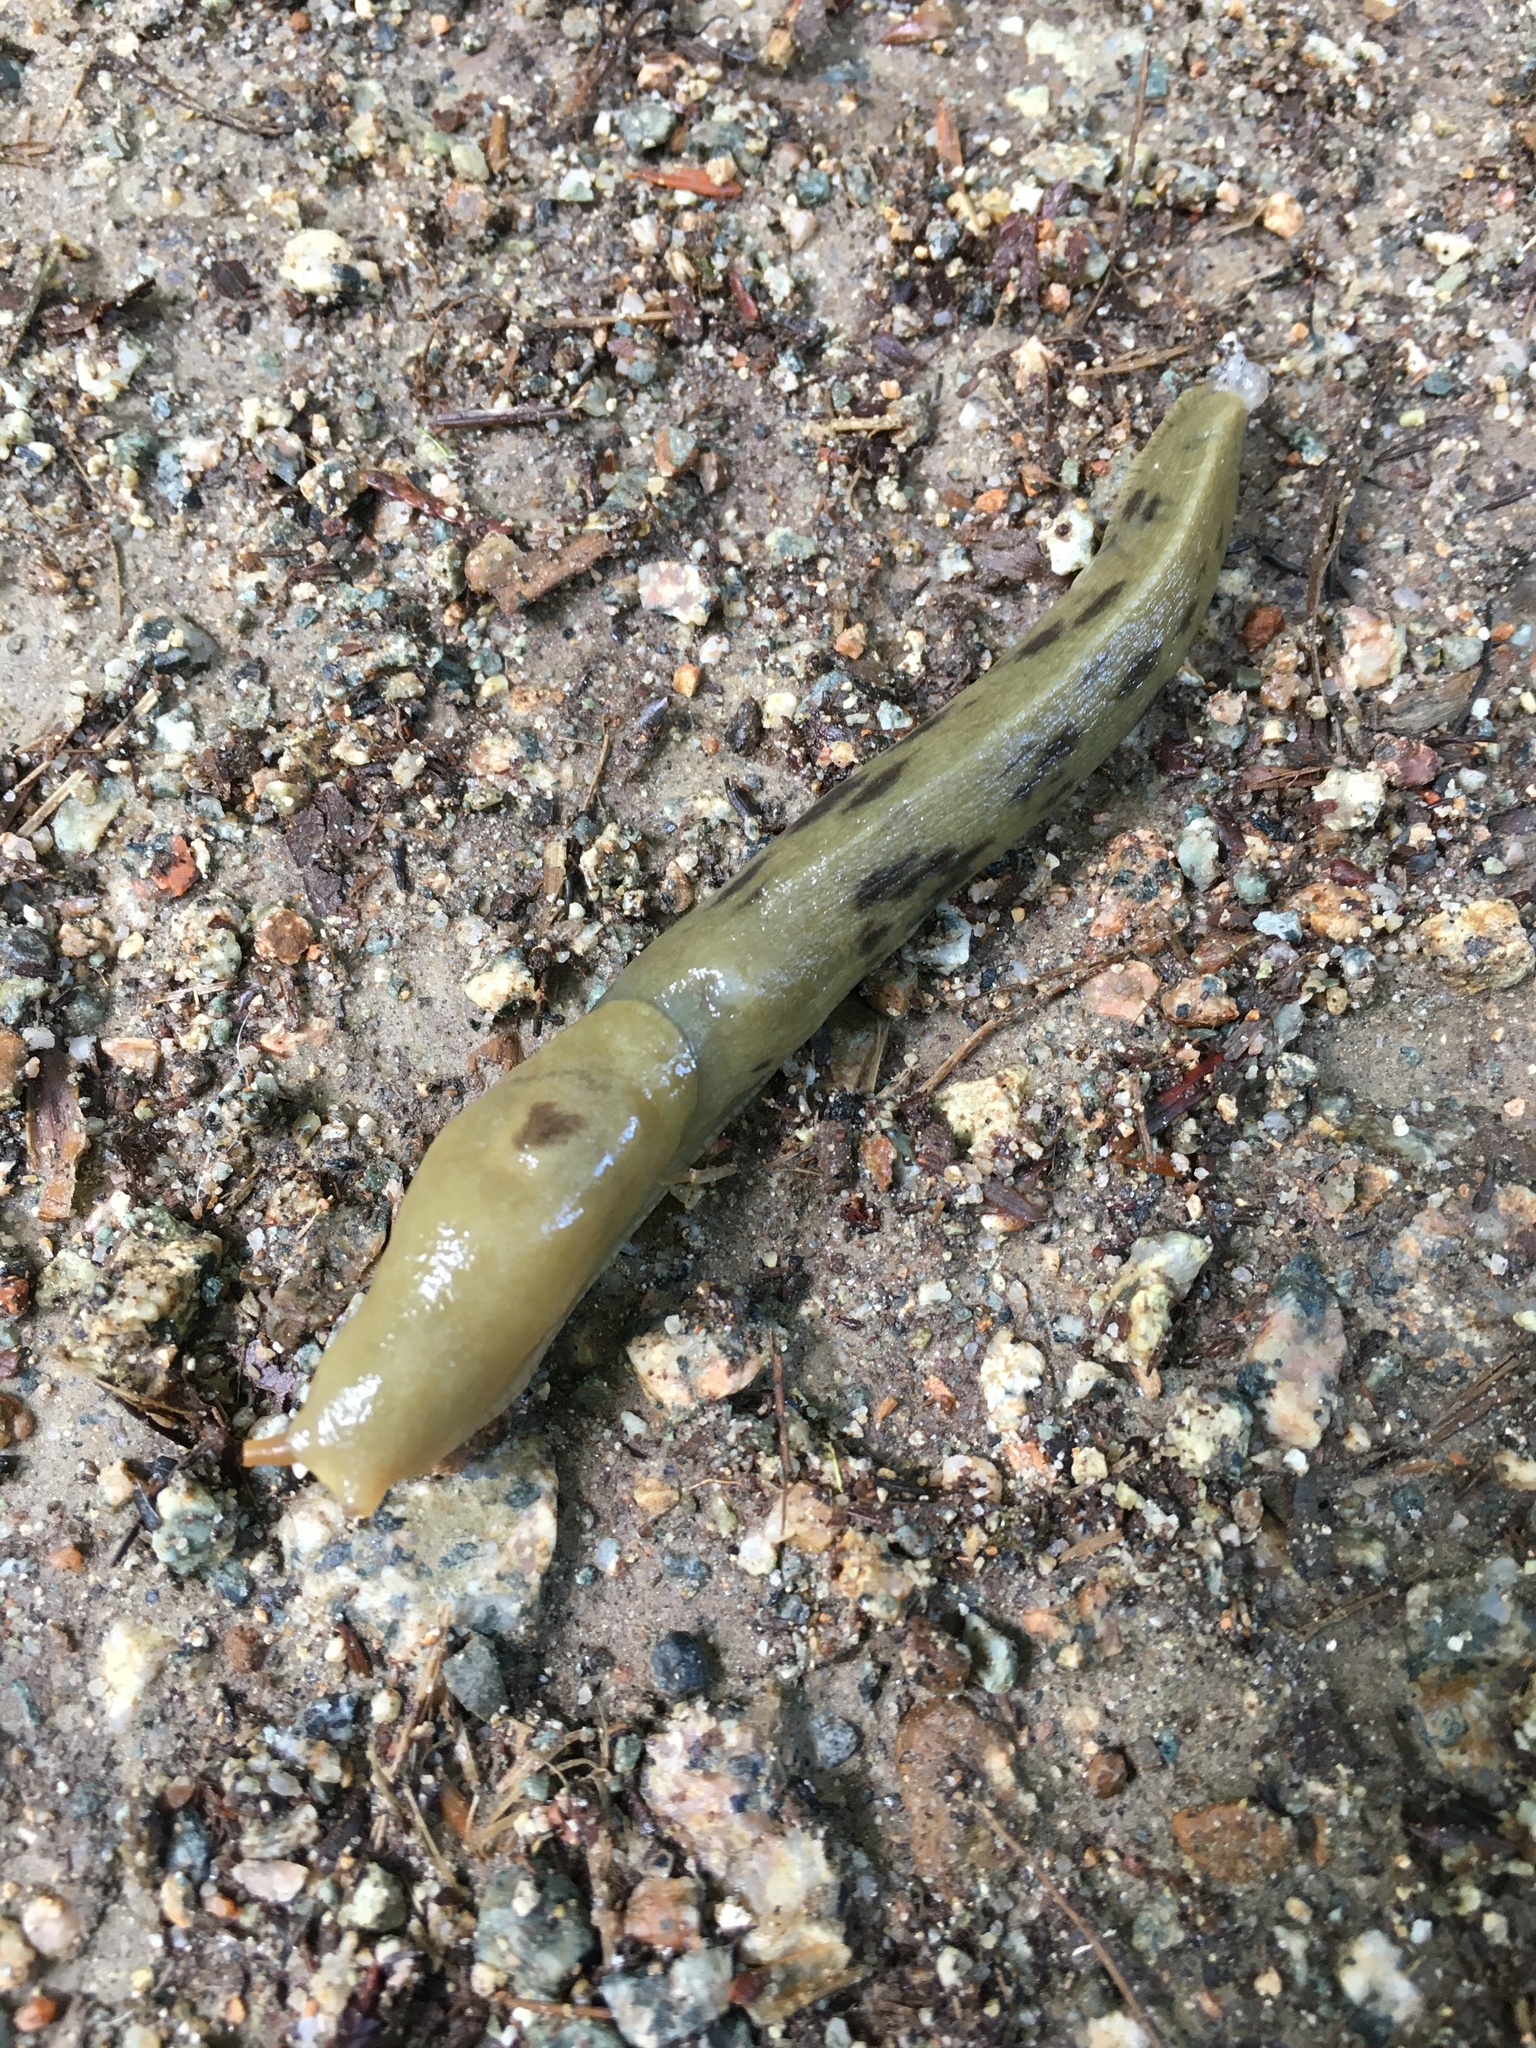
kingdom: Animalia
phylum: Mollusca
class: Gastropoda
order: Stylommatophora
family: Ariolimacidae
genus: Ariolimax
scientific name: Ariolimax columbianus
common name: Pacific banana slug
